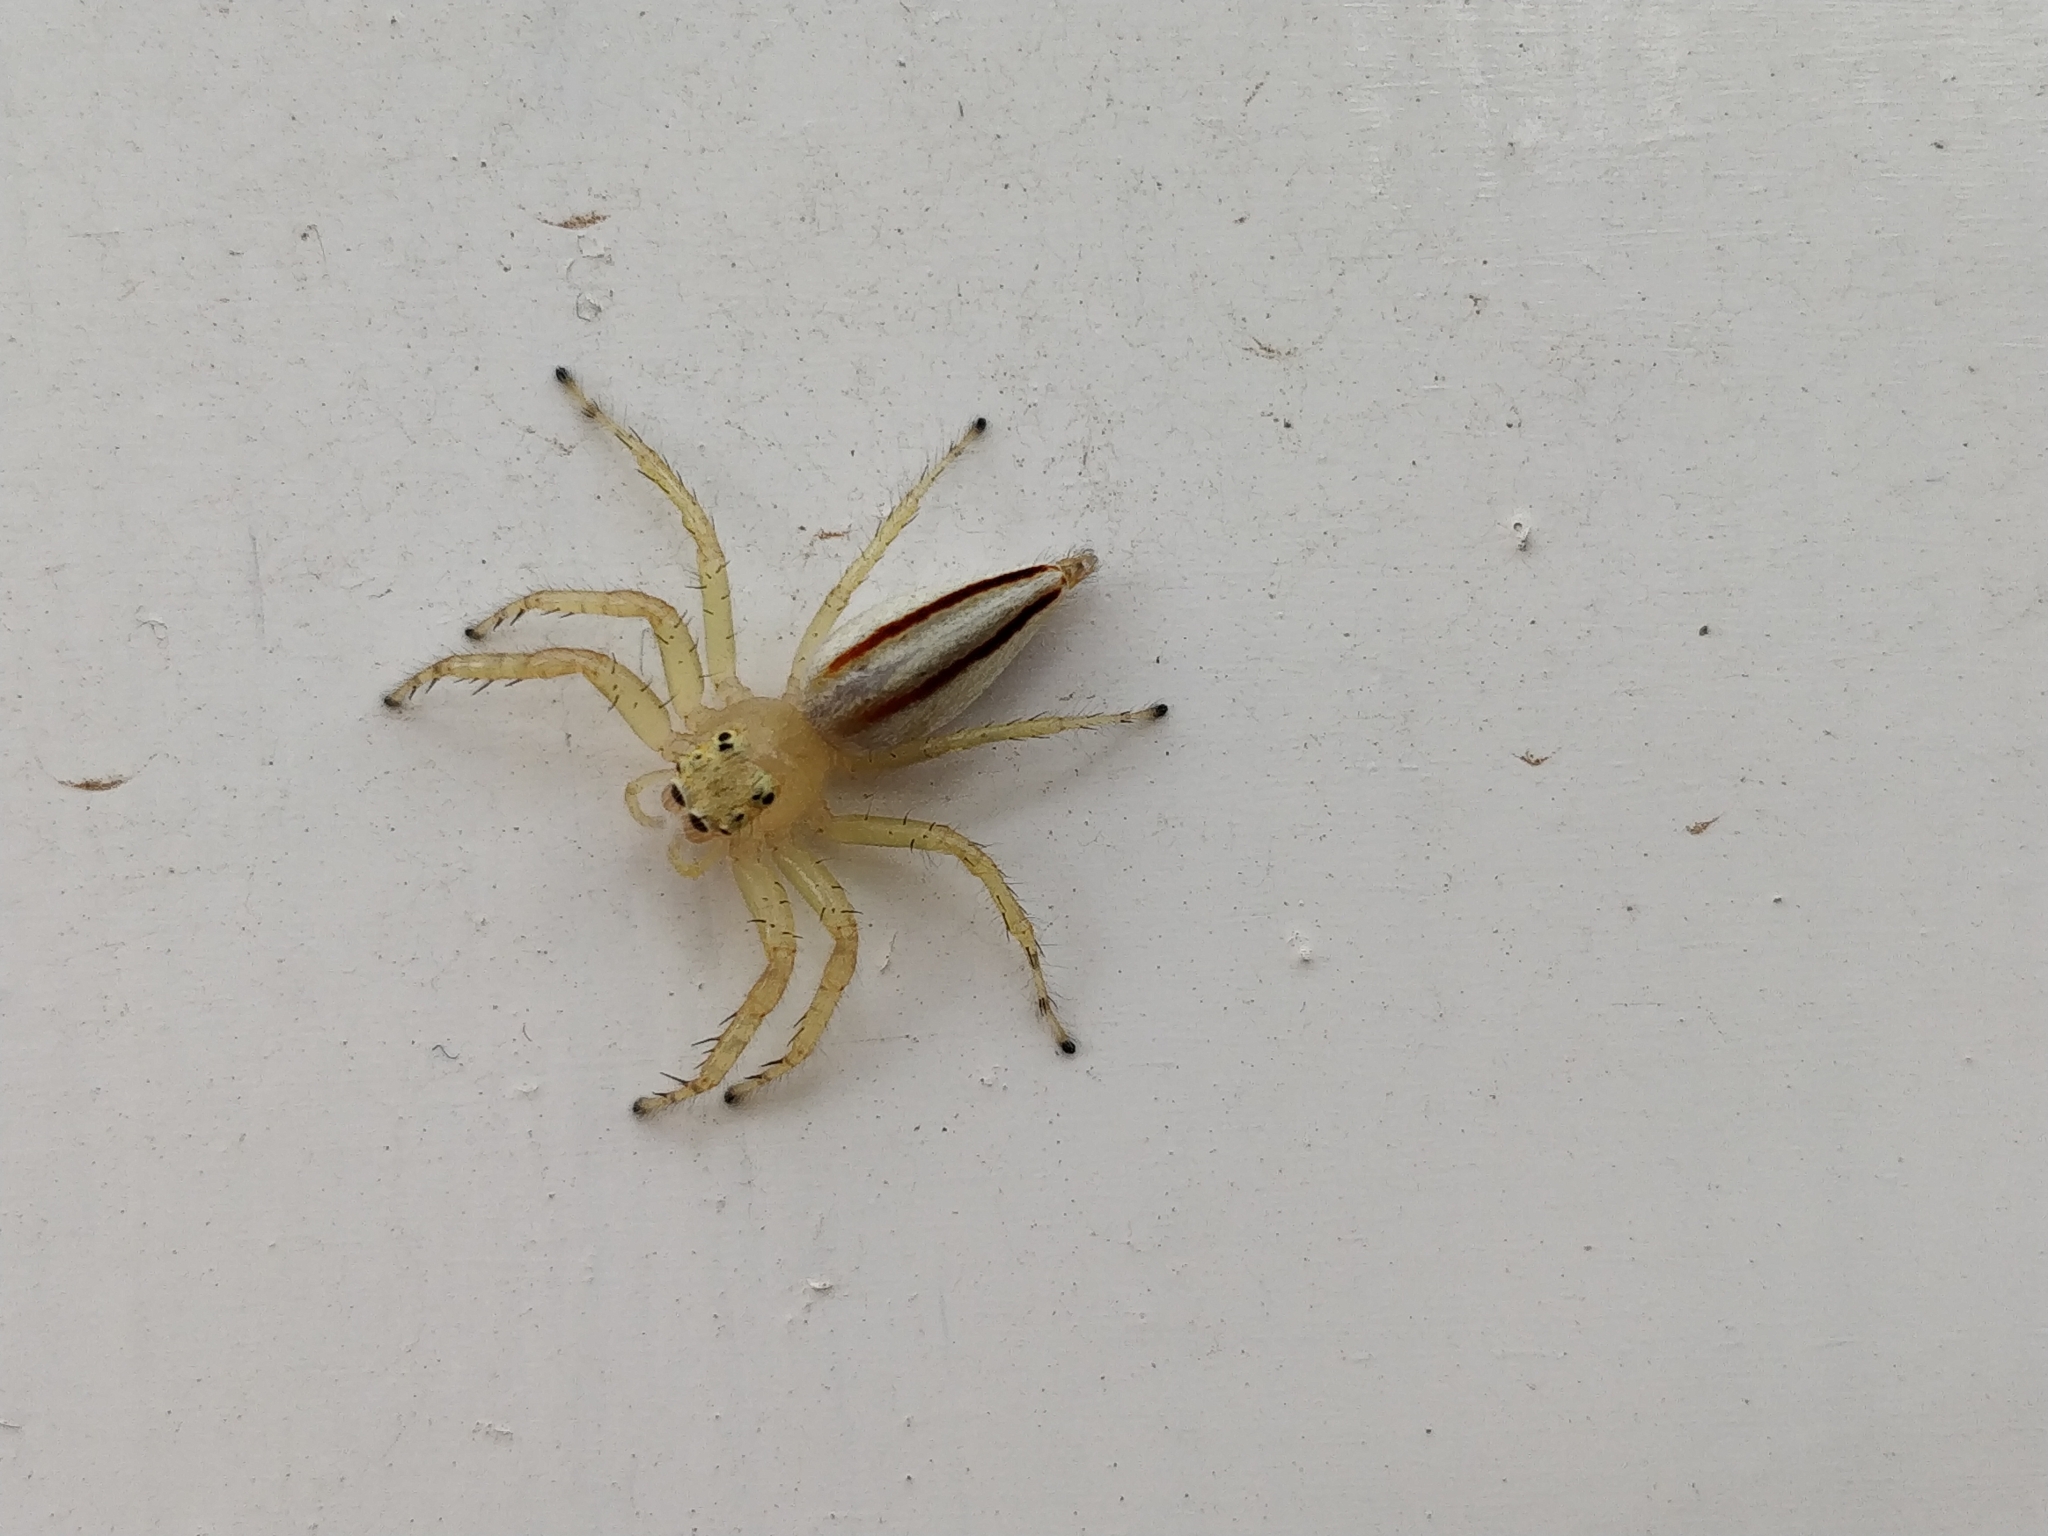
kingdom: Animalia
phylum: Arthropoda
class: Arachnida
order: Araneae
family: Salticidae
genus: Telamonia
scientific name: Telamonia dimidiata
